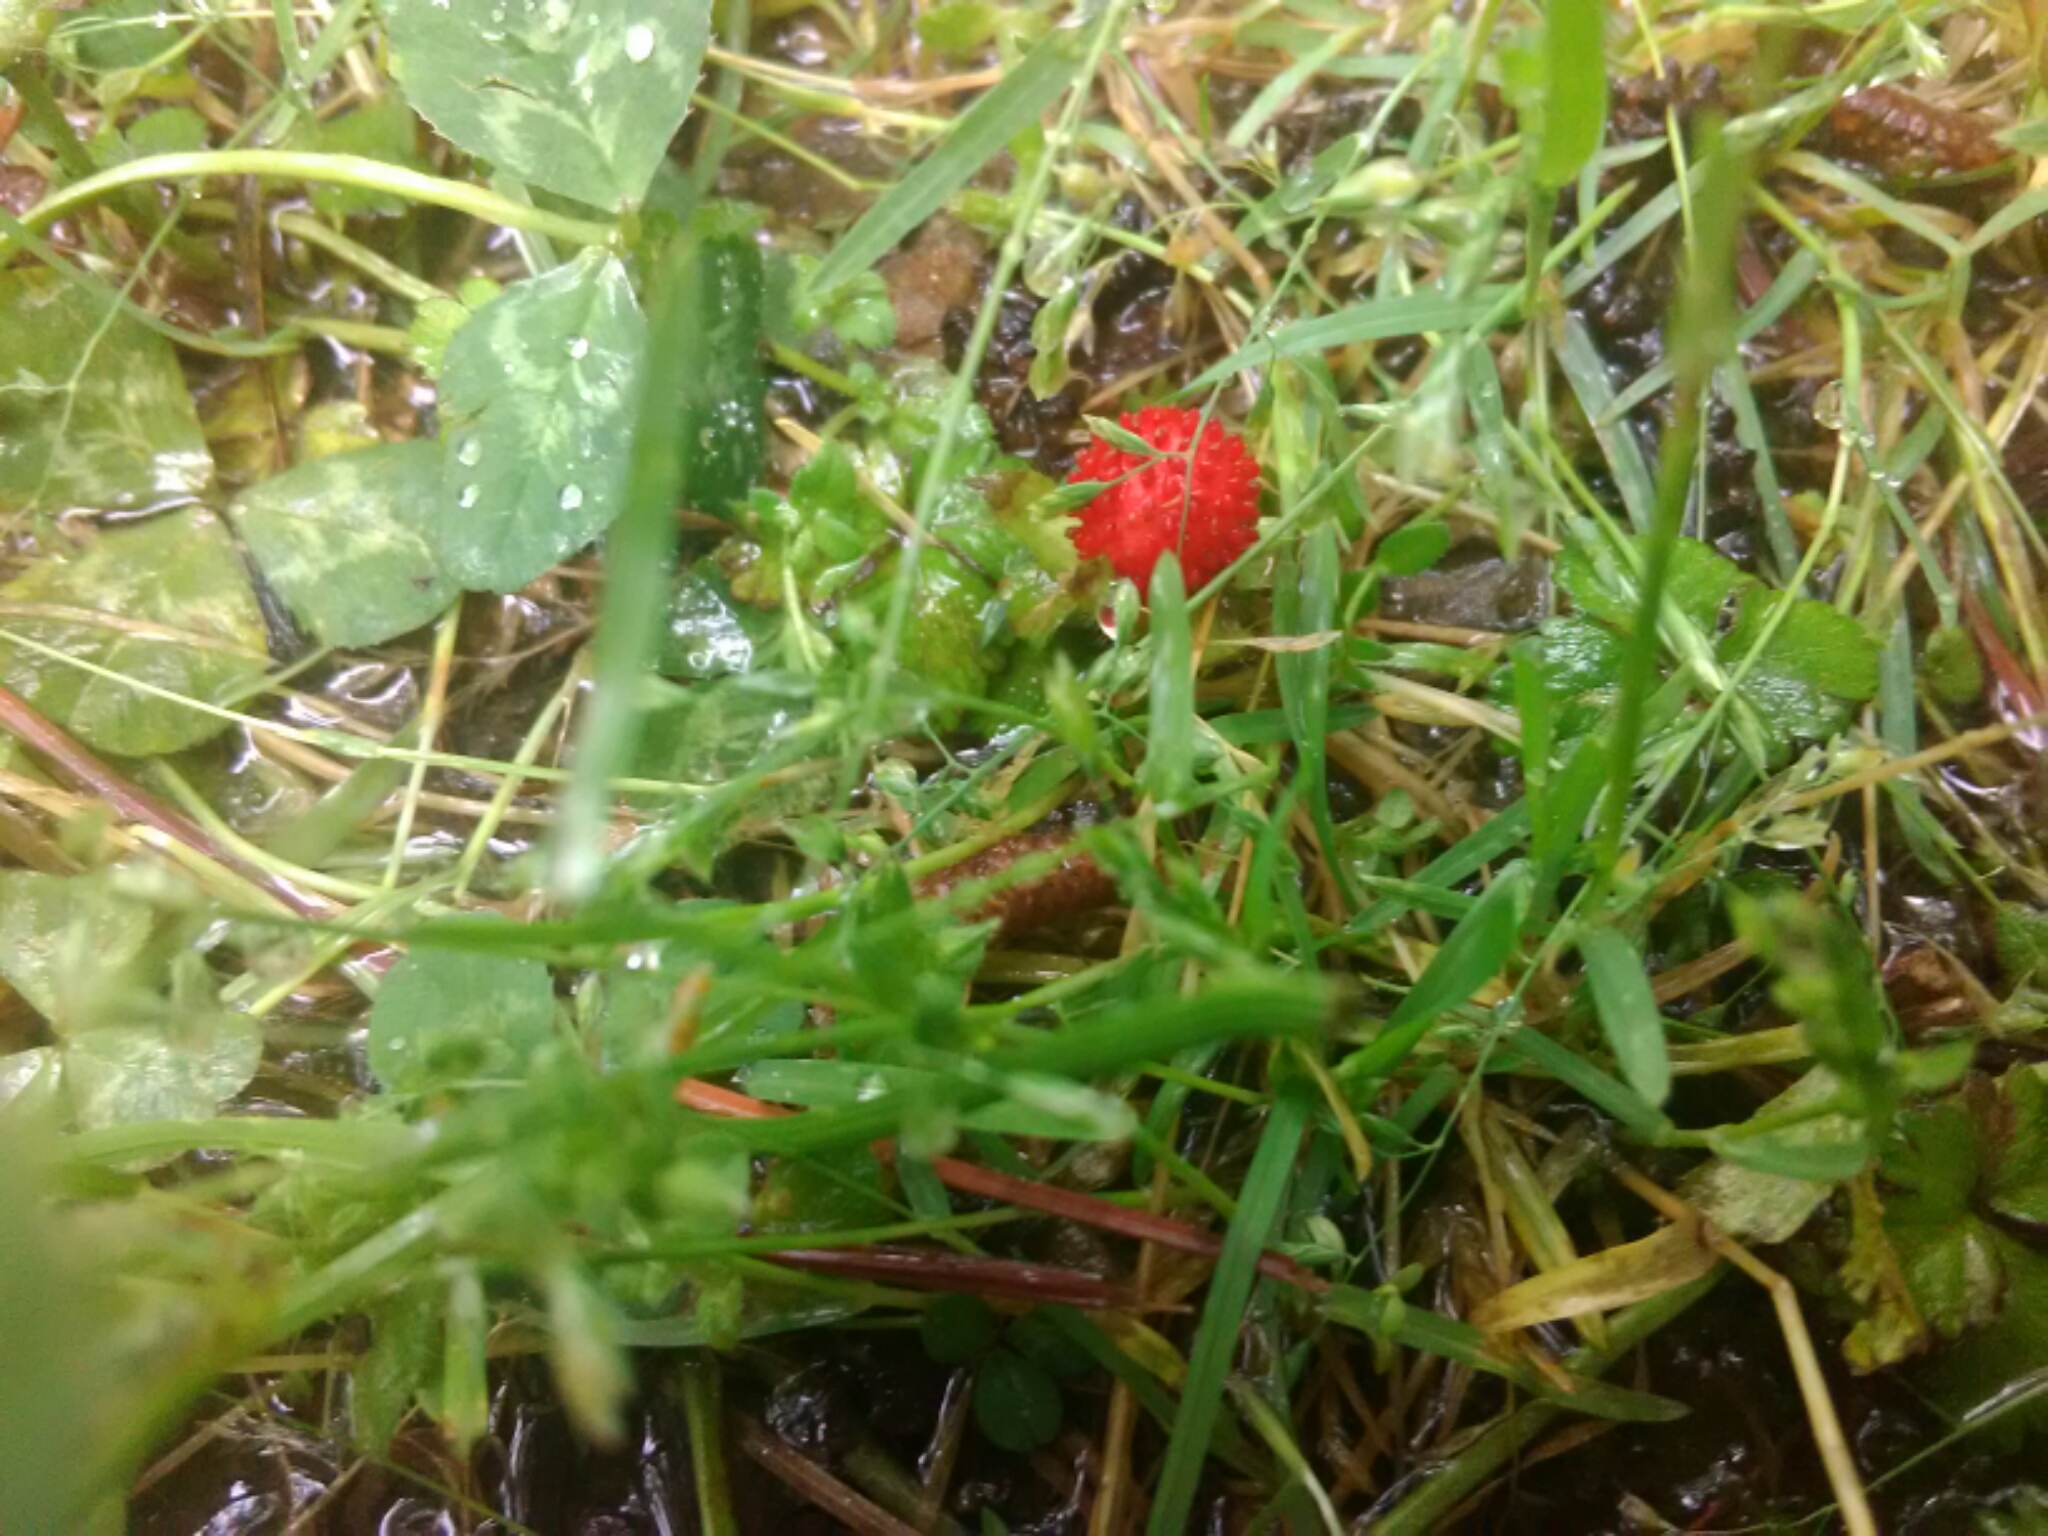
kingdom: Plantae
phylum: Tracheophyta
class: Magnoliopsida
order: Rosales
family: Rosaceae
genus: Potentilla
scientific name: Potentilla indica
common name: Yellow-flowered strawberry
